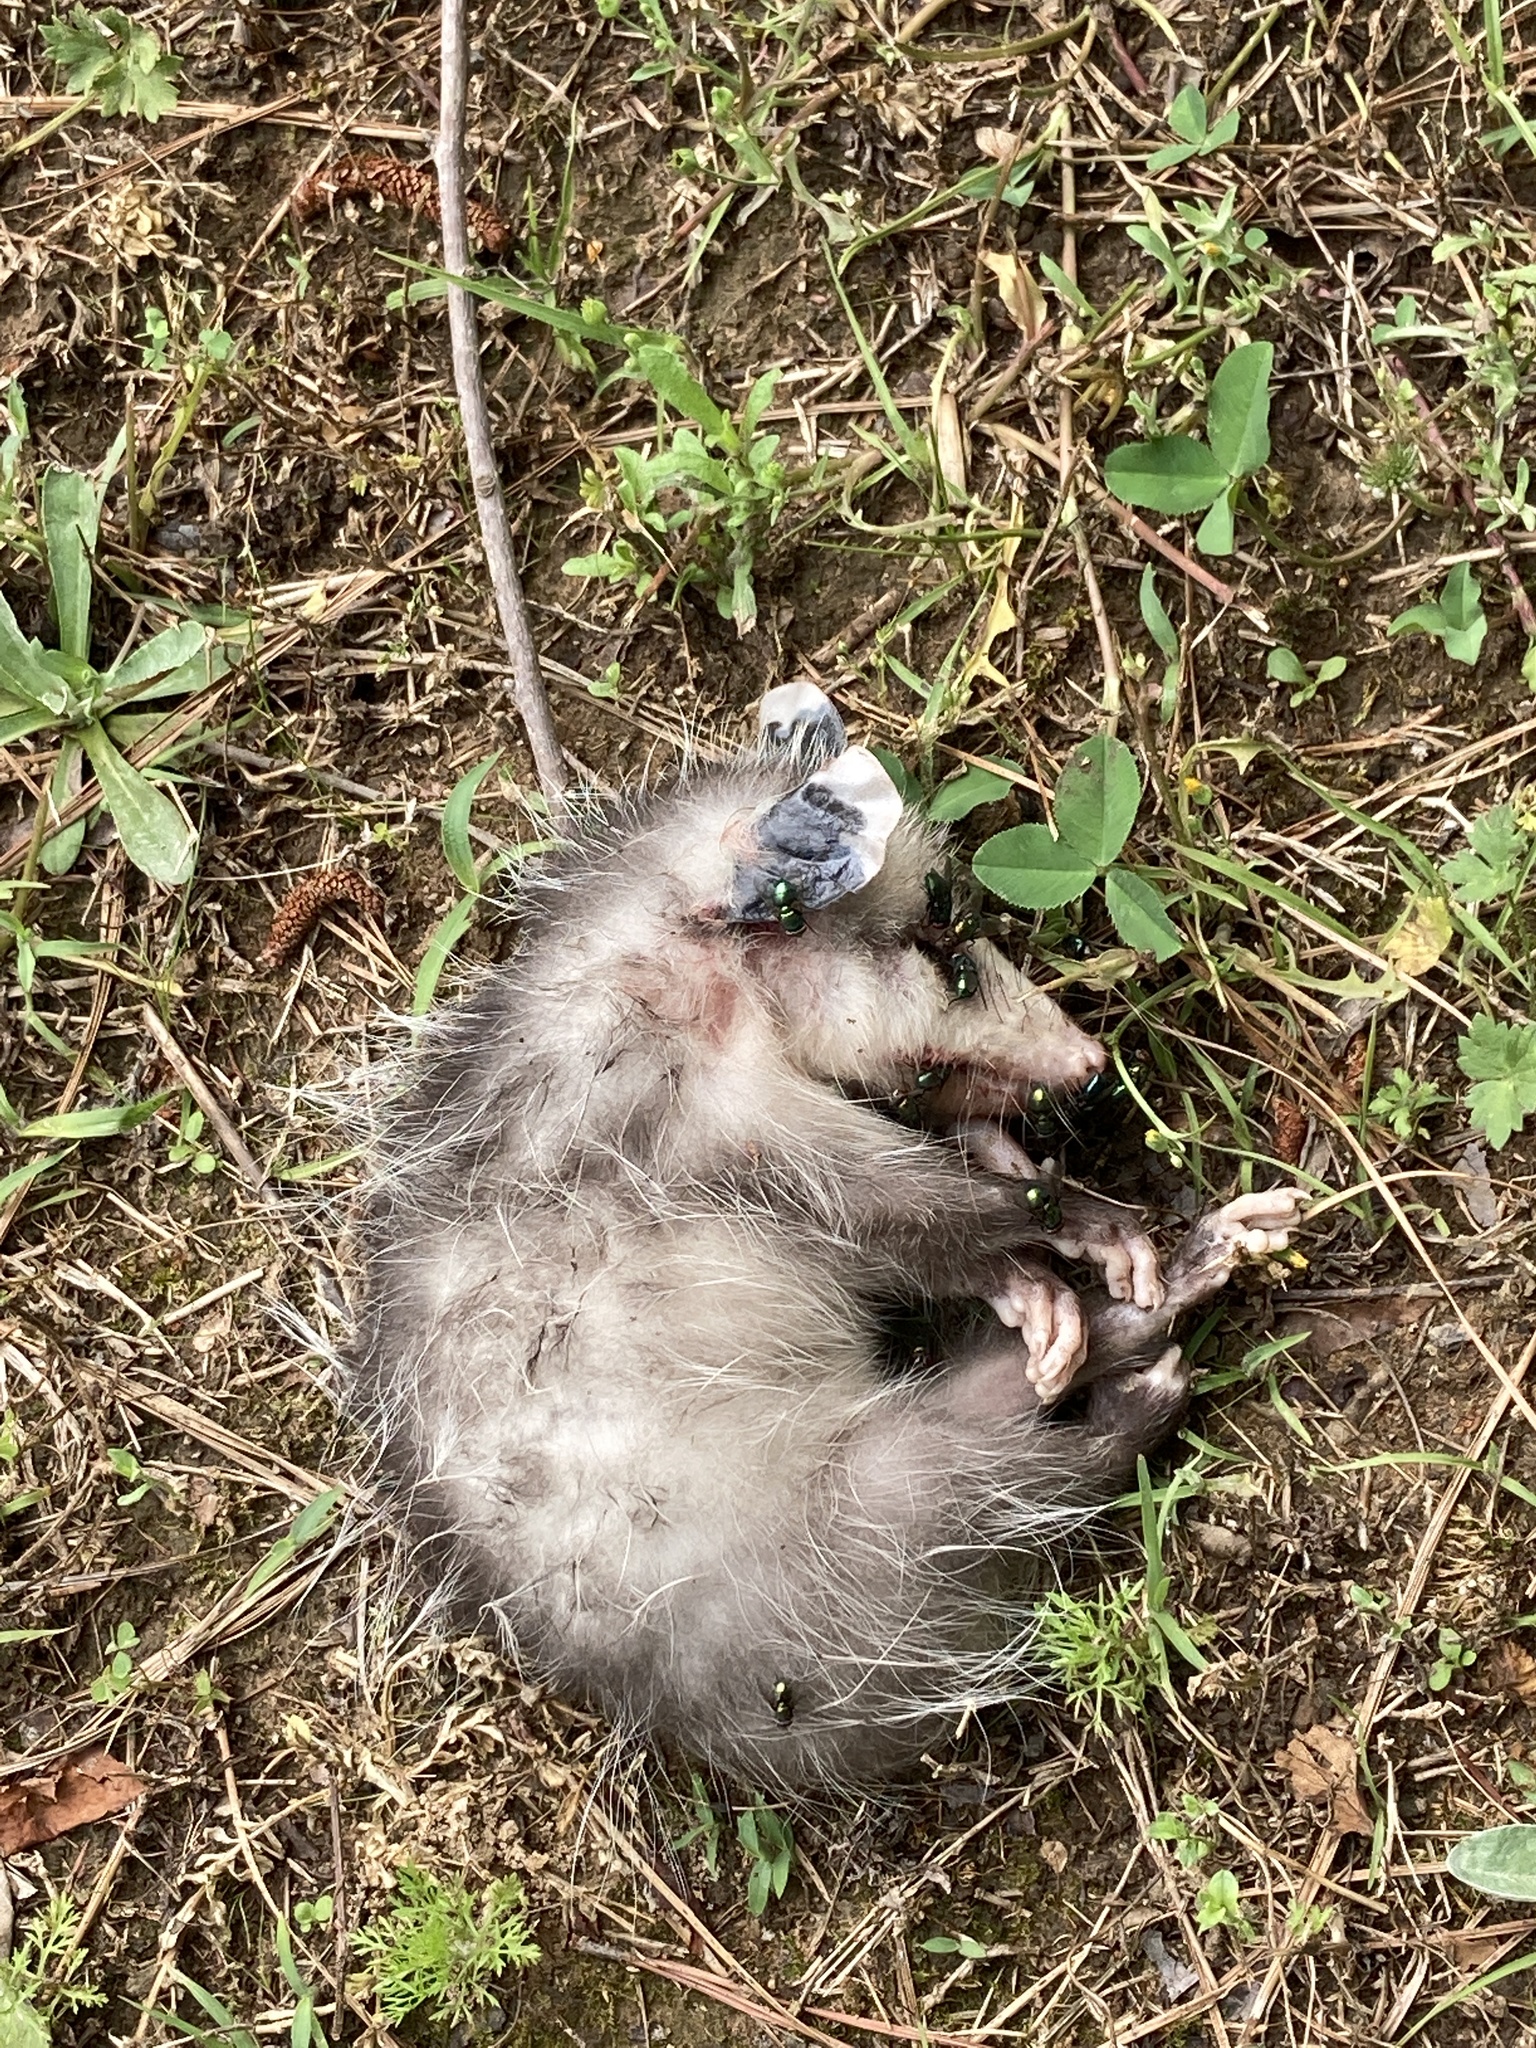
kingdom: Animalia
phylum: Chordata
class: Mammalia
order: Didelphimorphia
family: Didelphidae
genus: Didelphis
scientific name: Didelphis virginiana
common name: Virginia opossum
